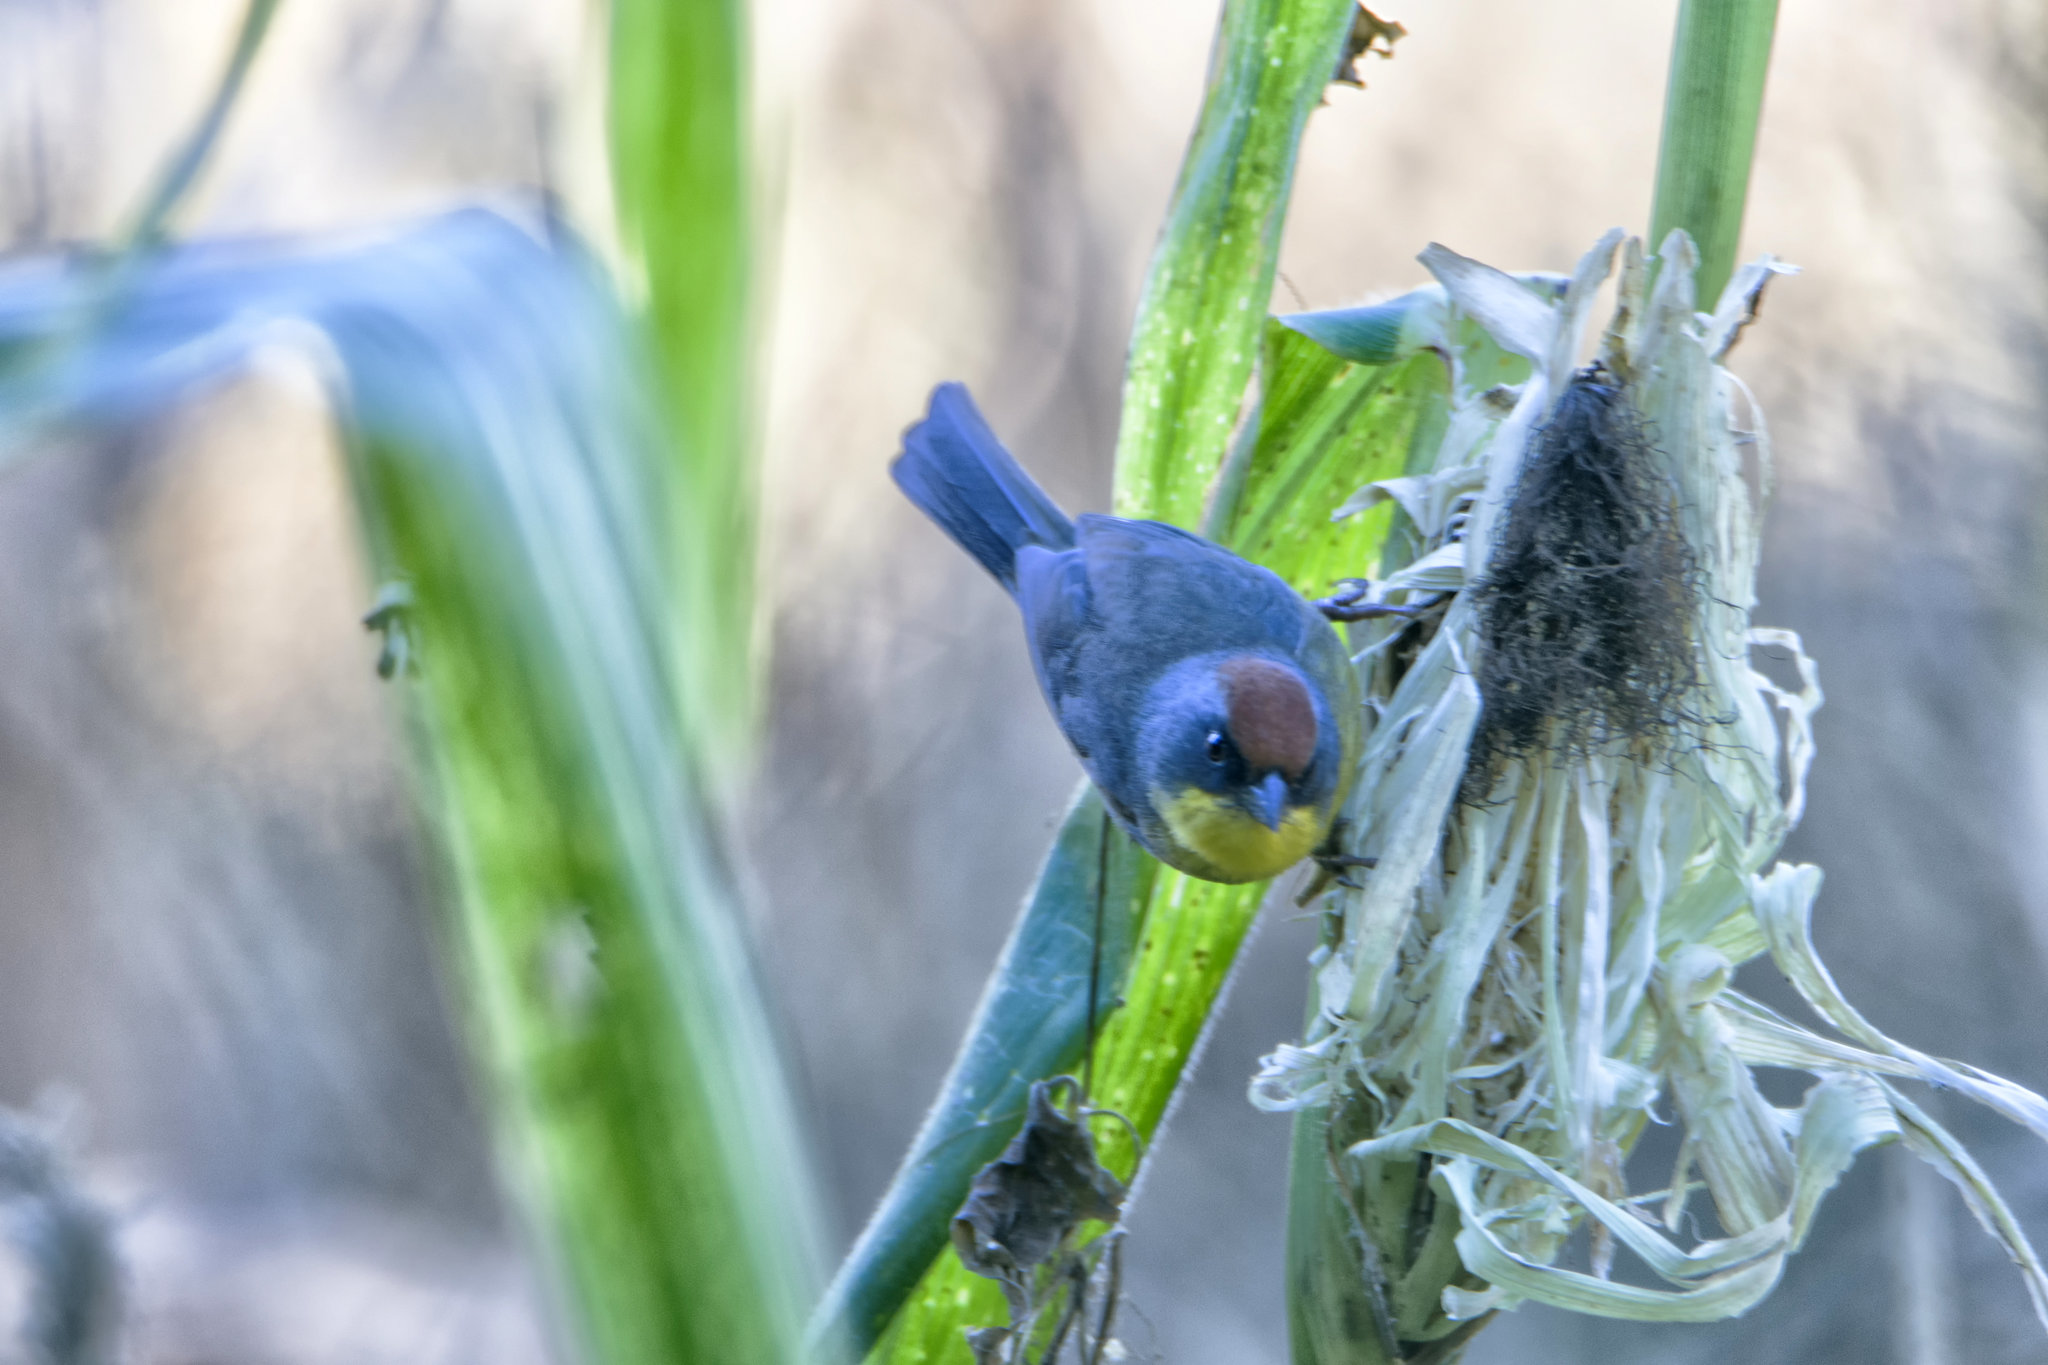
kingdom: Animalia
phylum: Chordata
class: Aves
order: Passeriformes
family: Passerellidae
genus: Atlapetes
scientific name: Atlapetes pileatus
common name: Rufous-capped brush-finch
